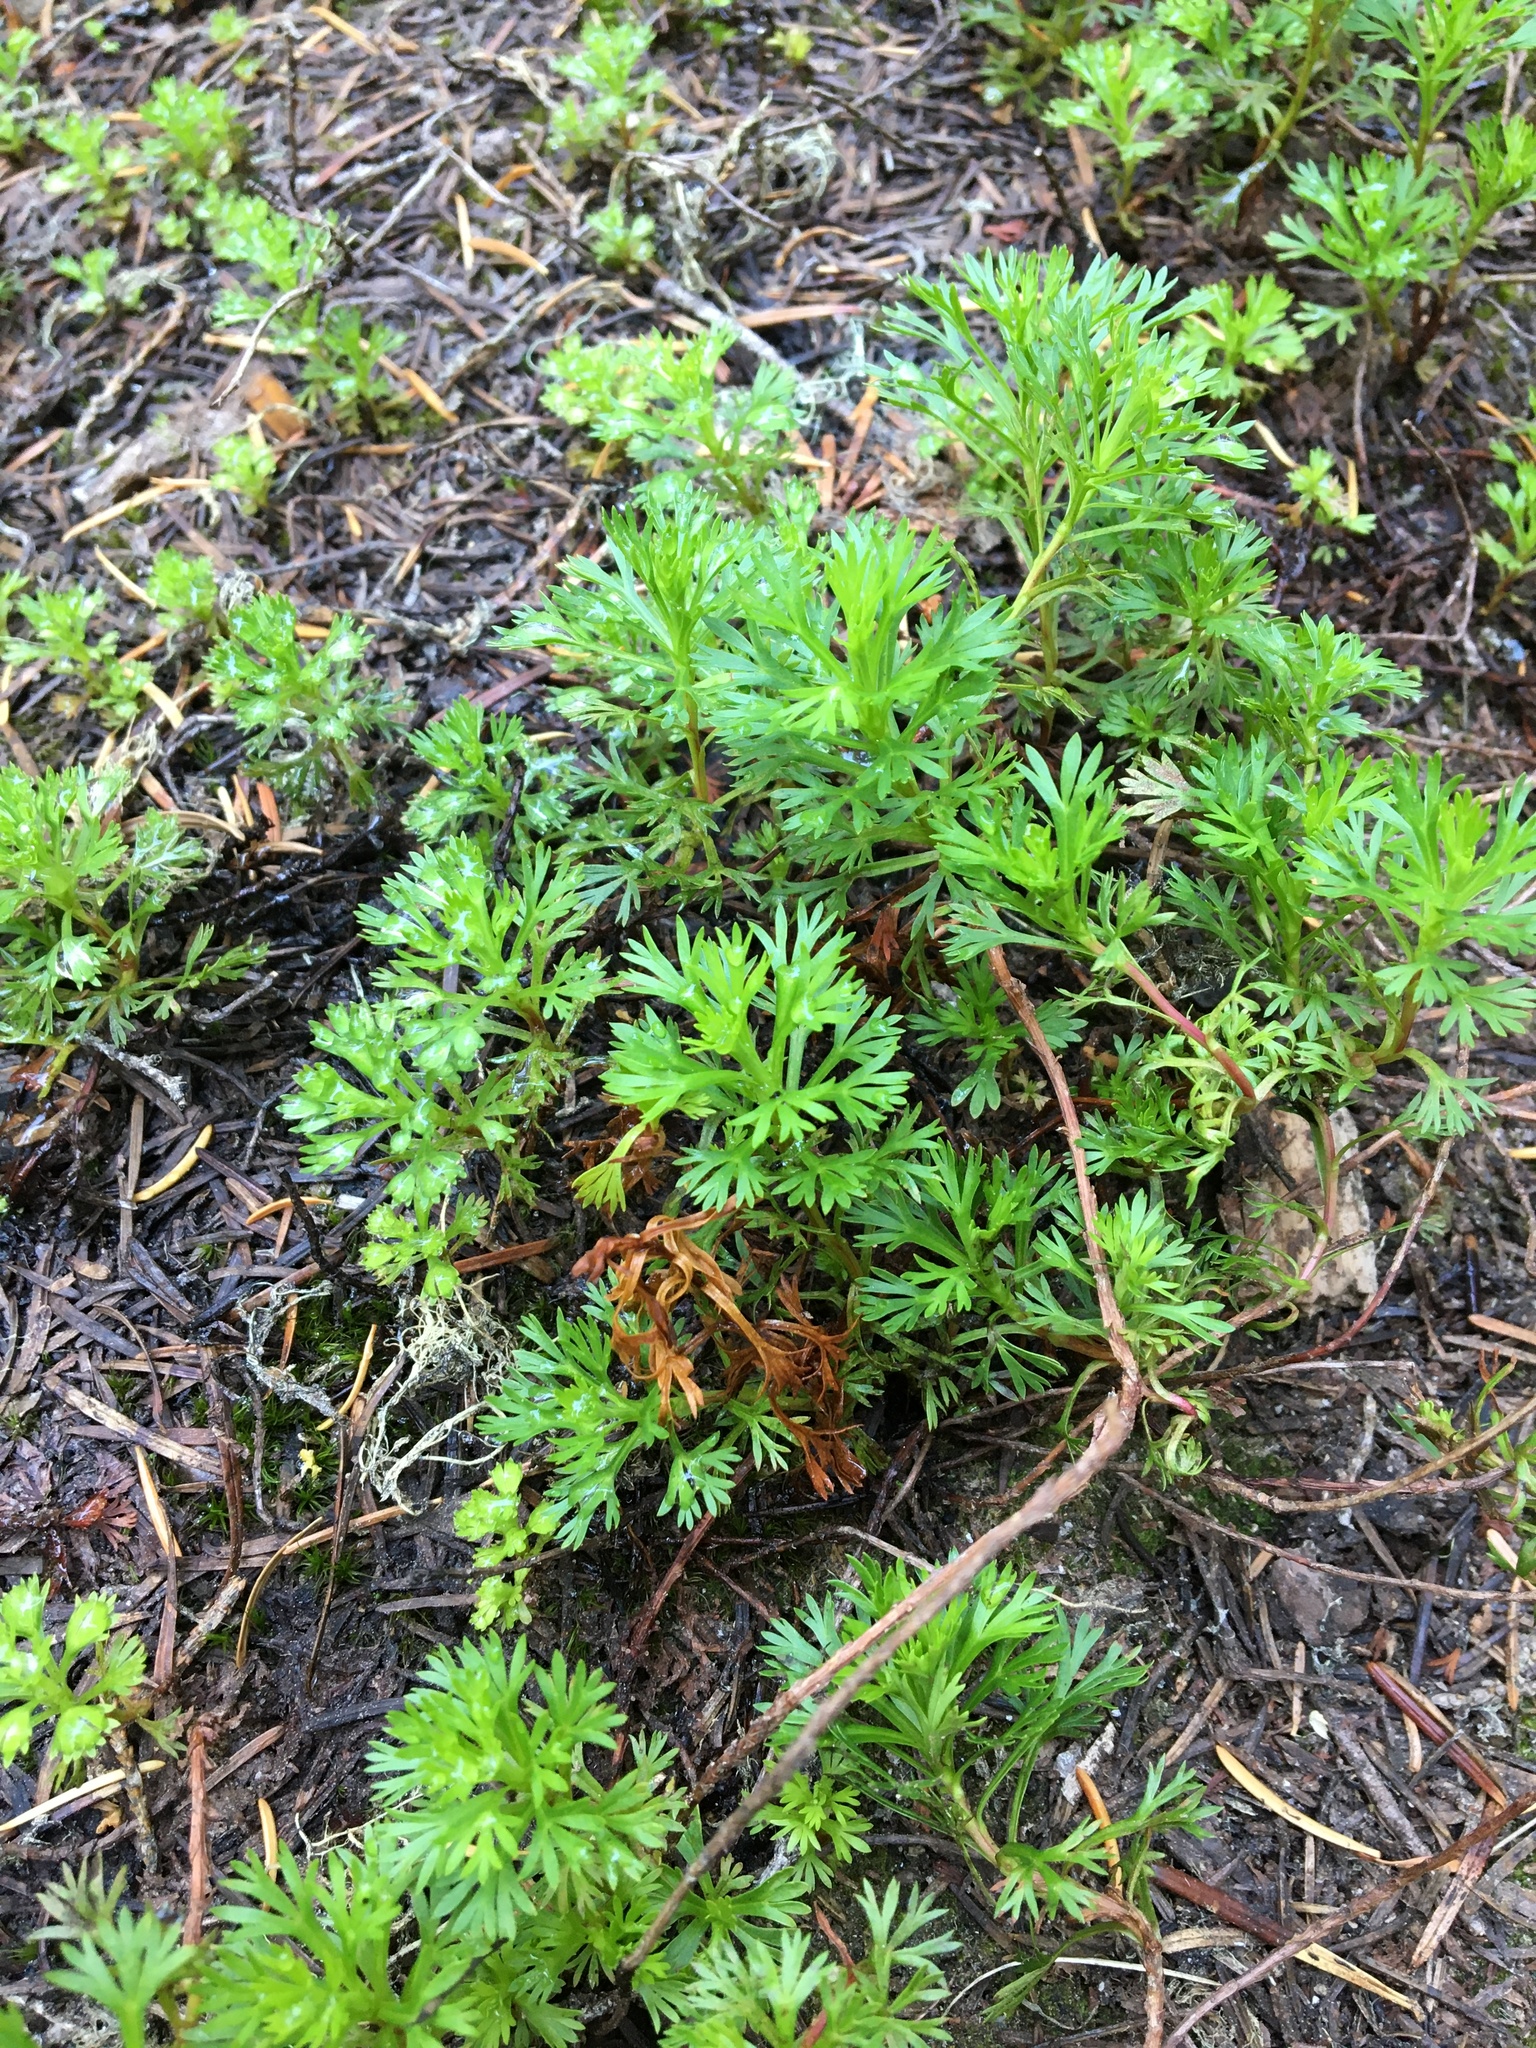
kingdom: Plantae
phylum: Tracheophyta
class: Magnoliopsida
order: Rosales
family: Rosaceae
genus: Luetkea
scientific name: Luetkea pectinata
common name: Partridgefoot
